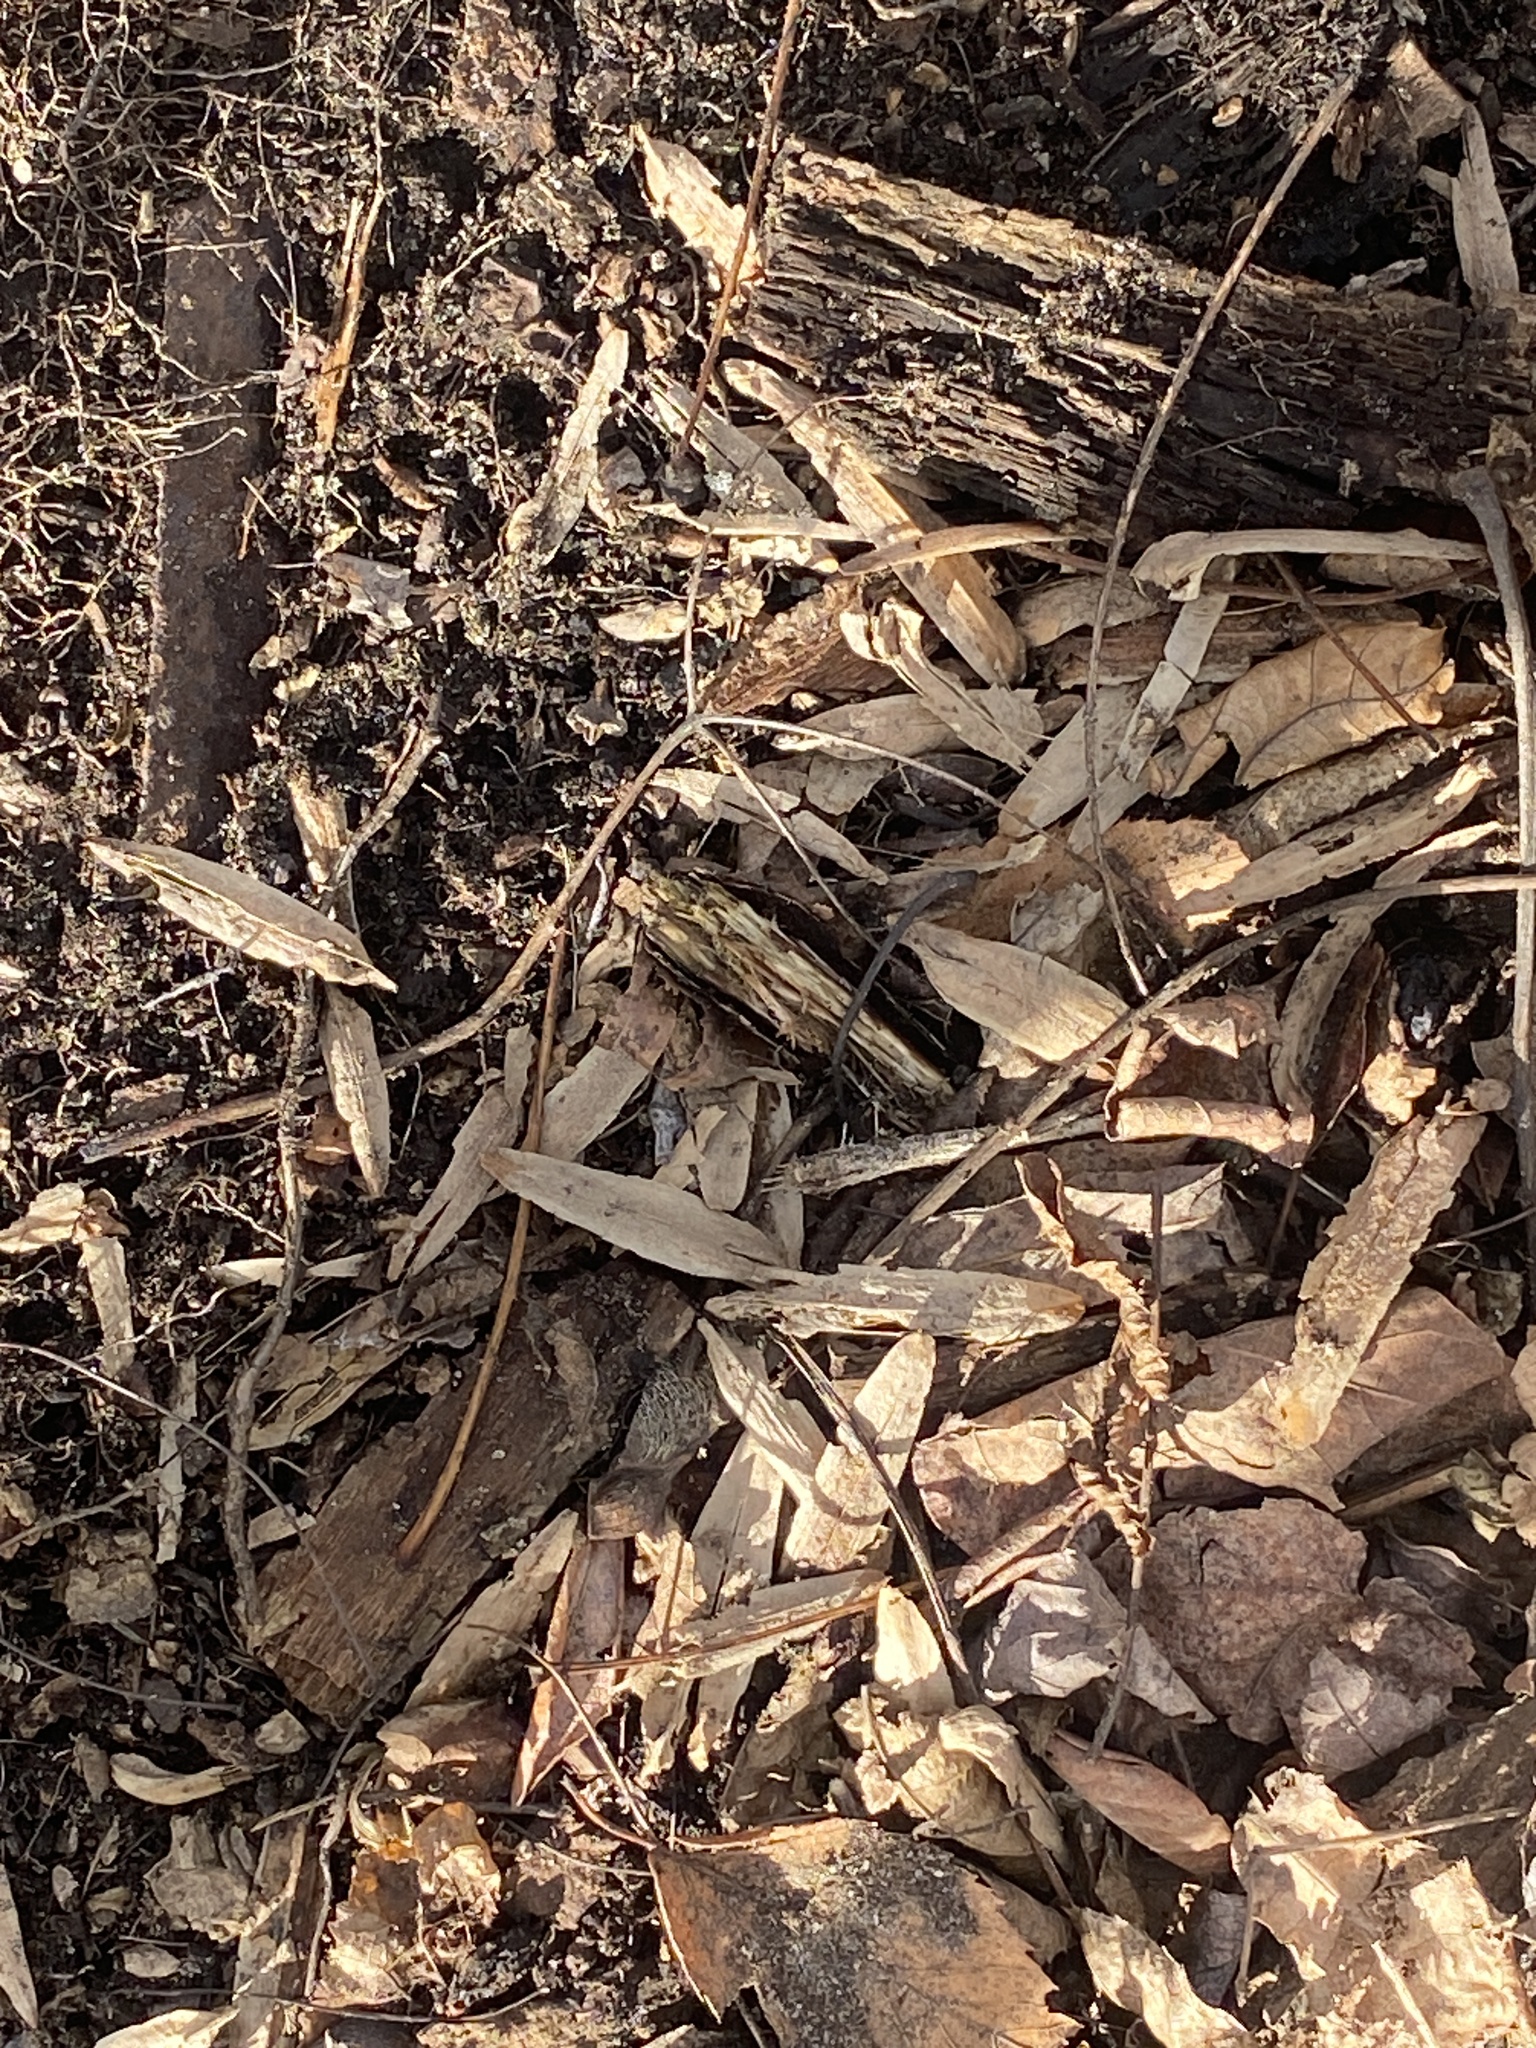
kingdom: Plantae
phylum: Tracheophyta
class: Magnoliopsida
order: Magnoliales
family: Magnoliaceae
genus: Liriodendron
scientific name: Liriodendron tulipifera
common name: Tulip tree
